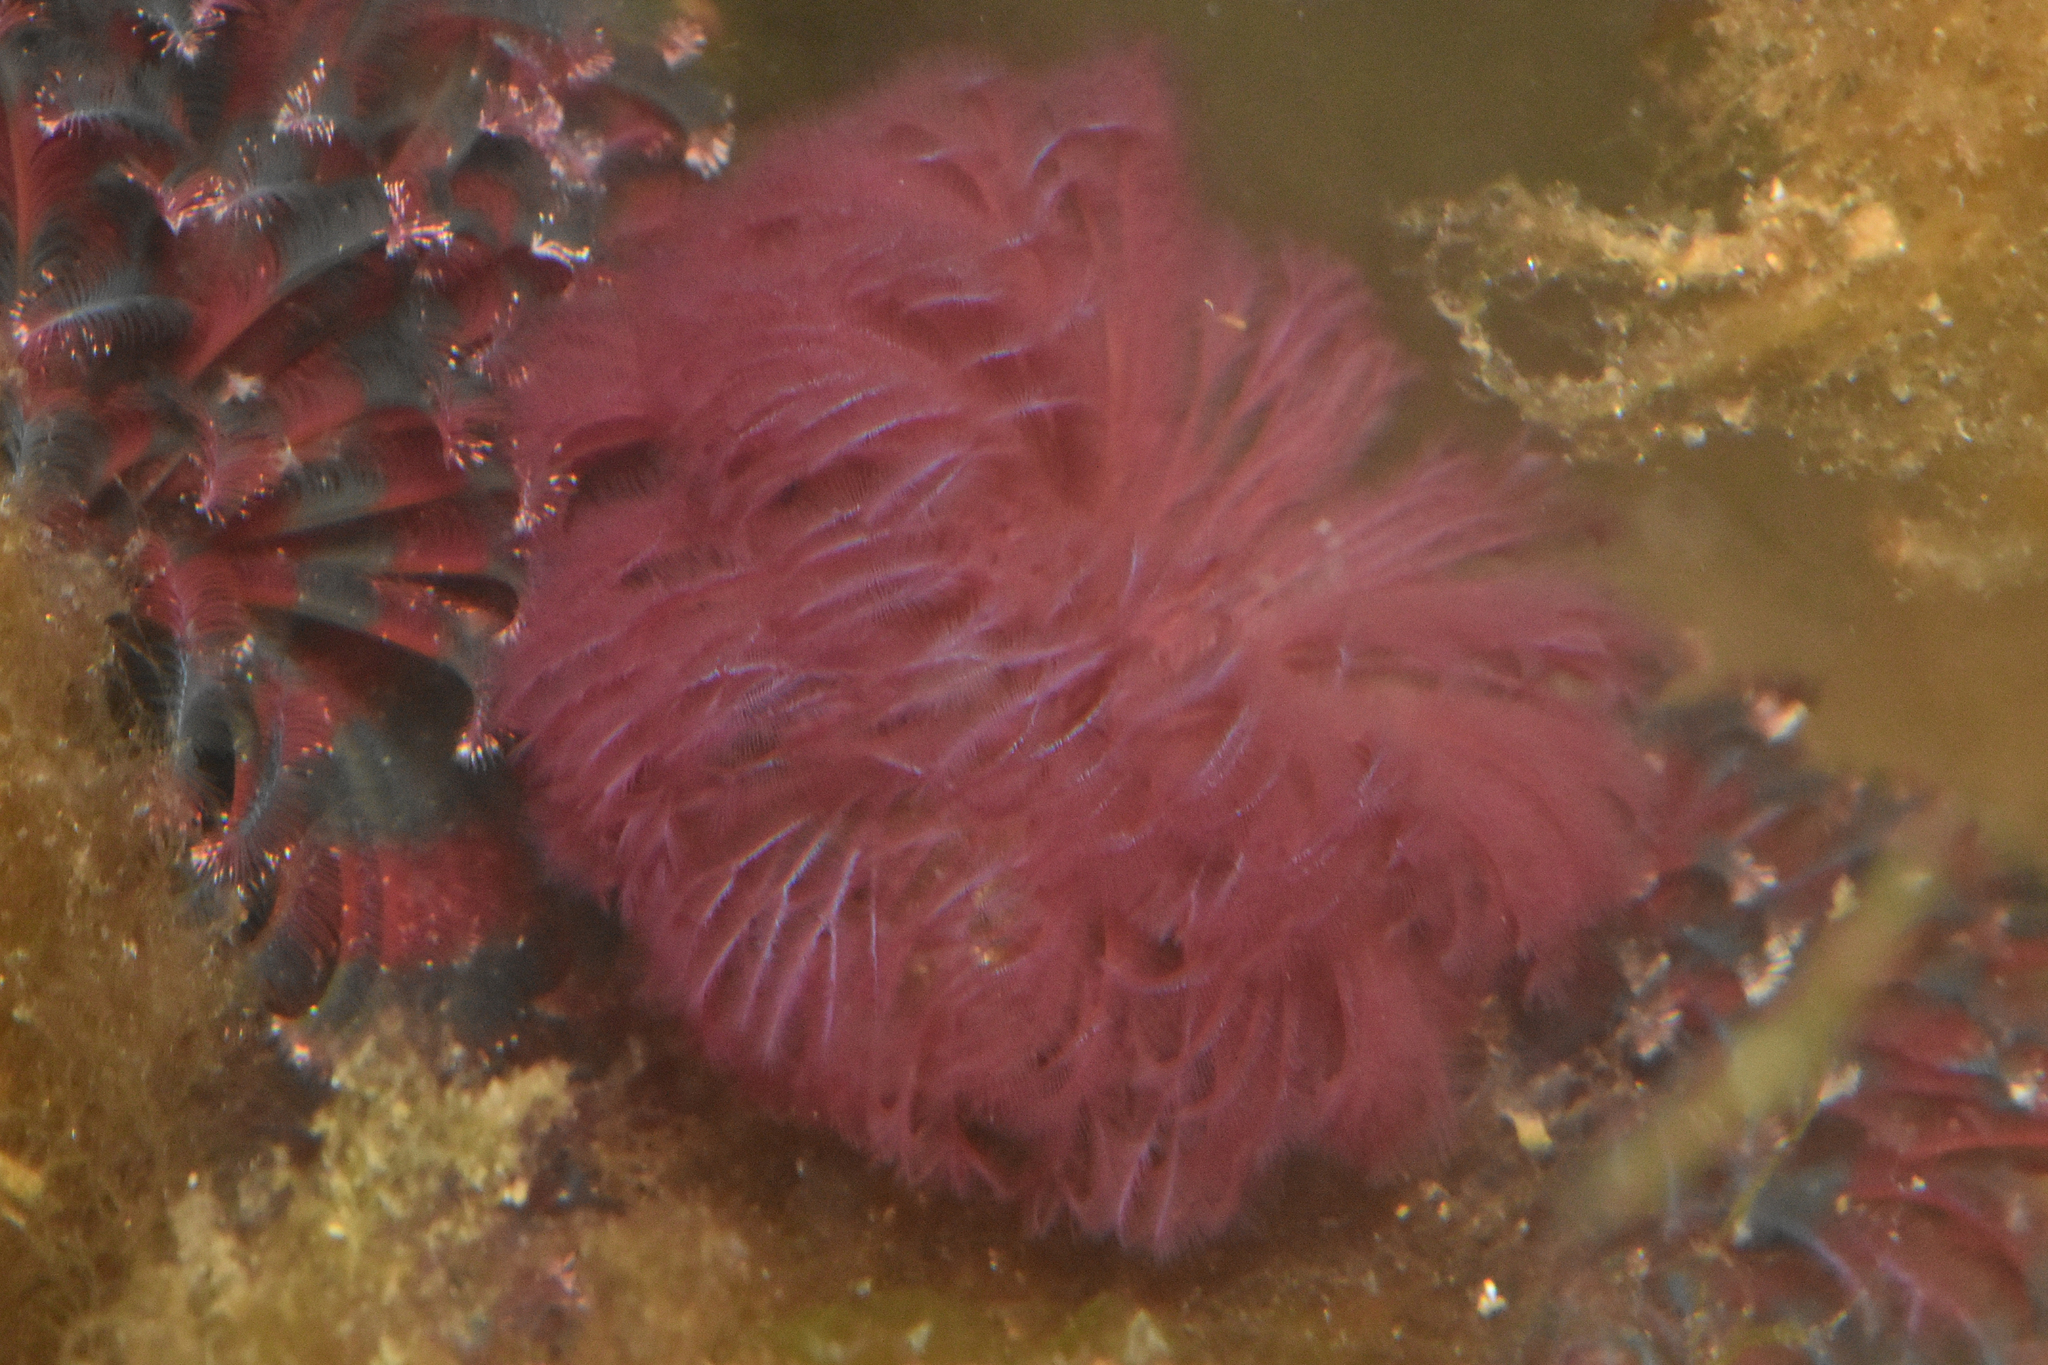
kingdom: Animalia
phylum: Annelida
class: Polychaeta
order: Sabellida
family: Sabellidae
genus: Schizobranchia
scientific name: Schizobranchia insignis
